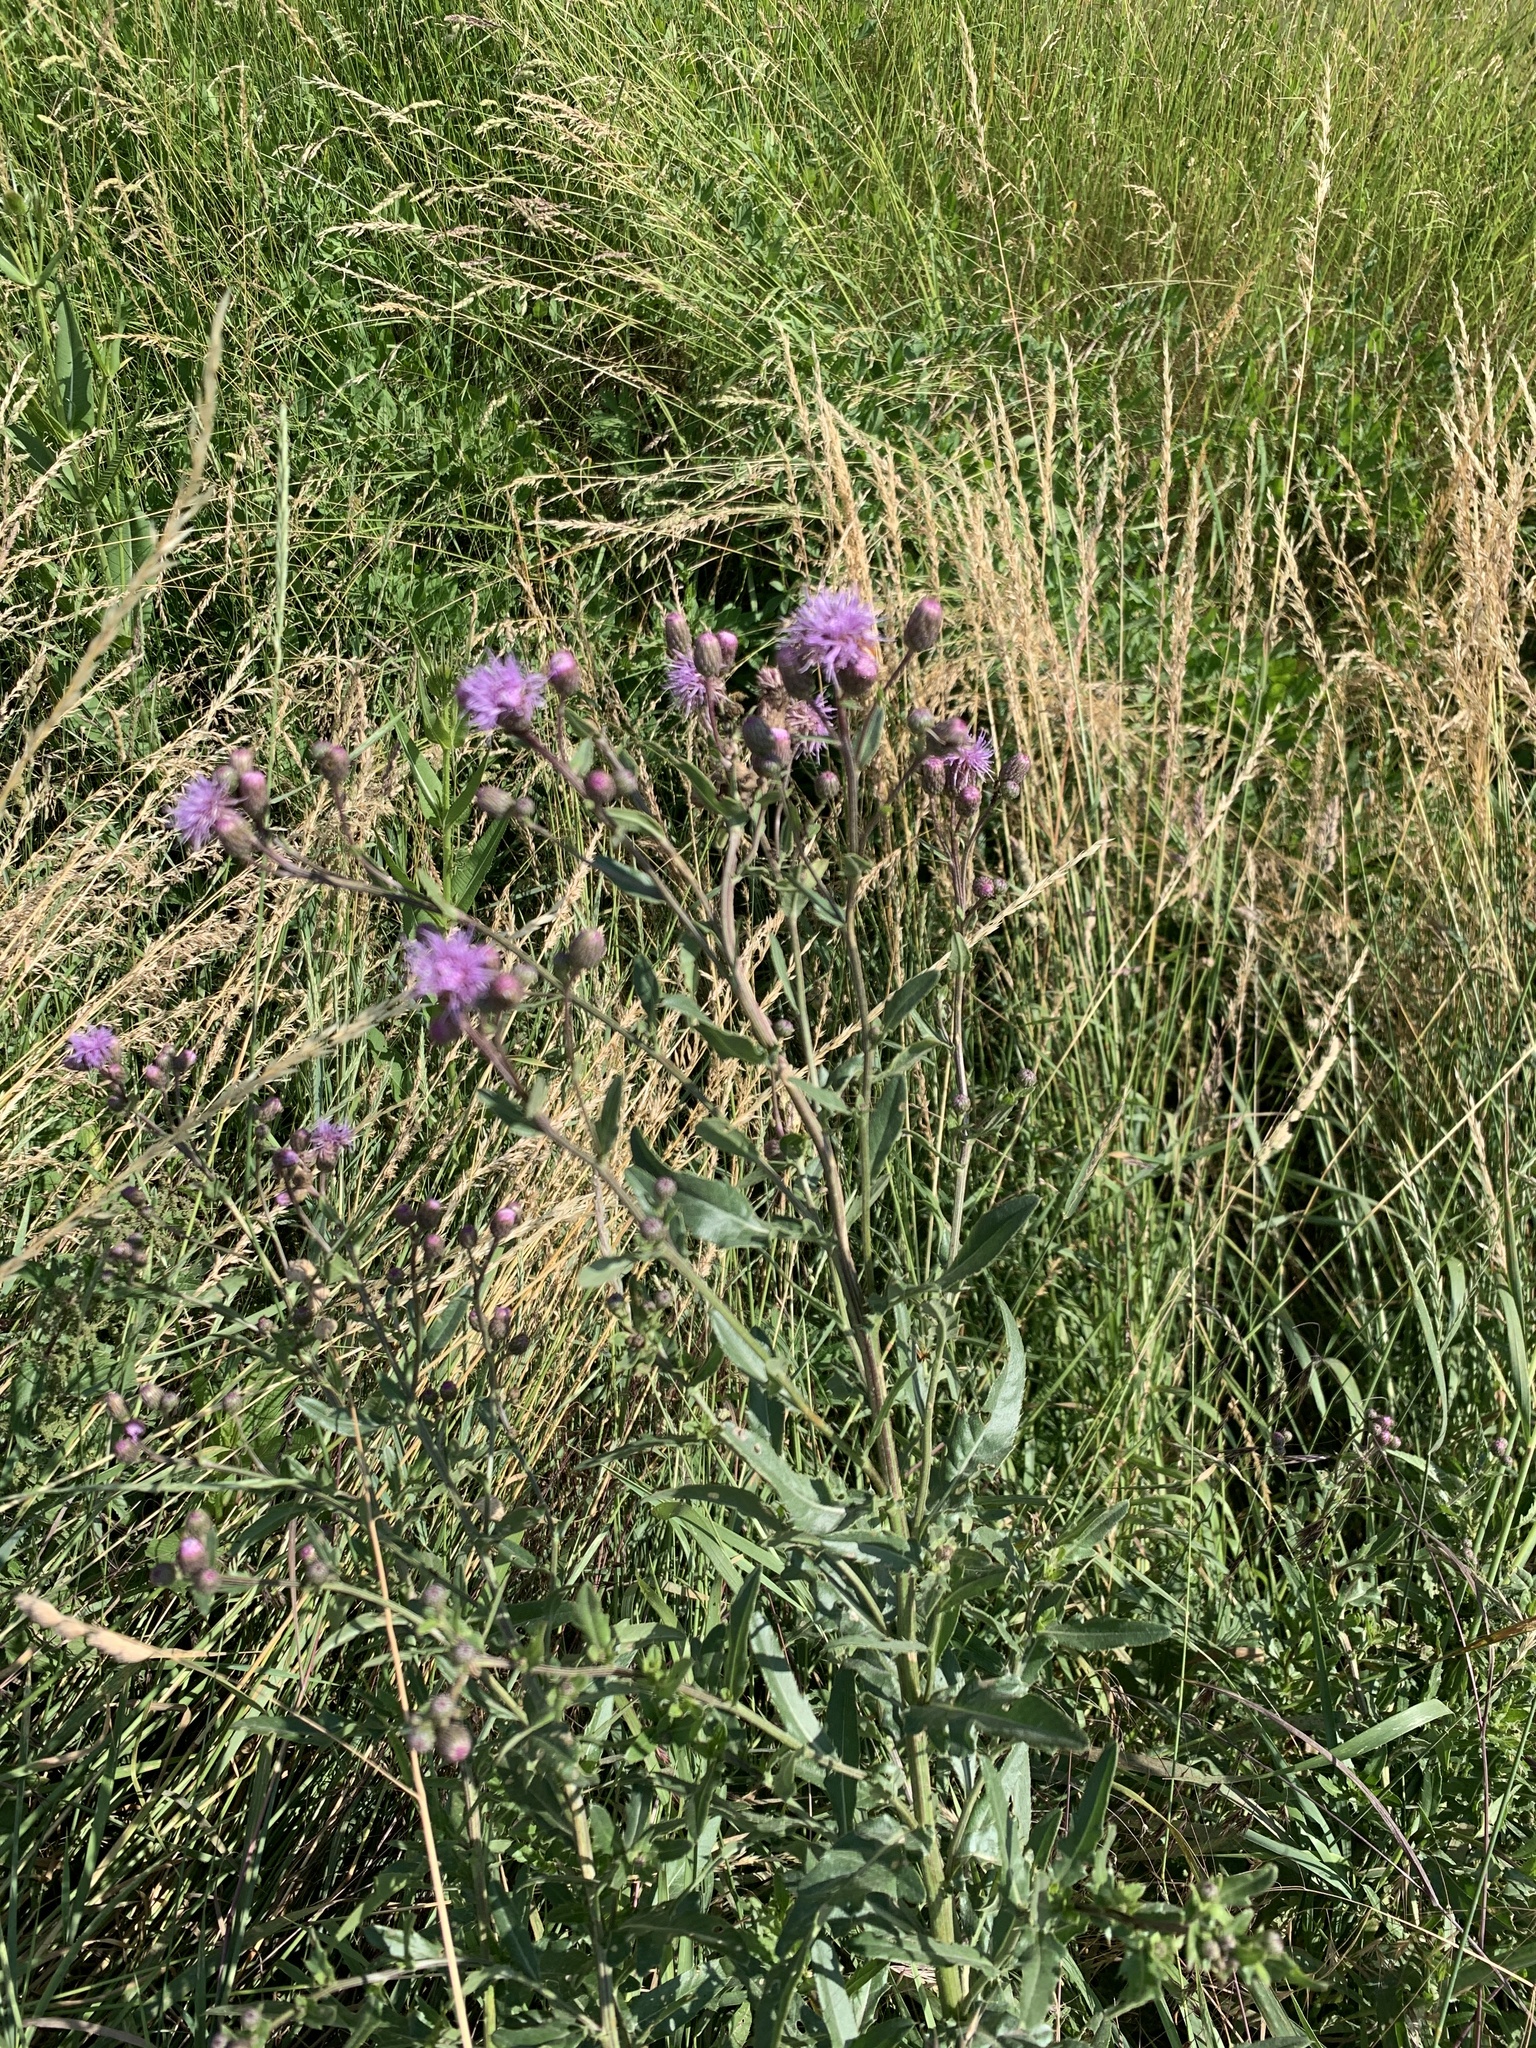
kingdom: Plantae
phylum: Tracheophyta
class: Magnoliopsida
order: Asterales
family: Asteraceae
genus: Cirsium
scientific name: Cirsium arvense
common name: Creeping thistle
